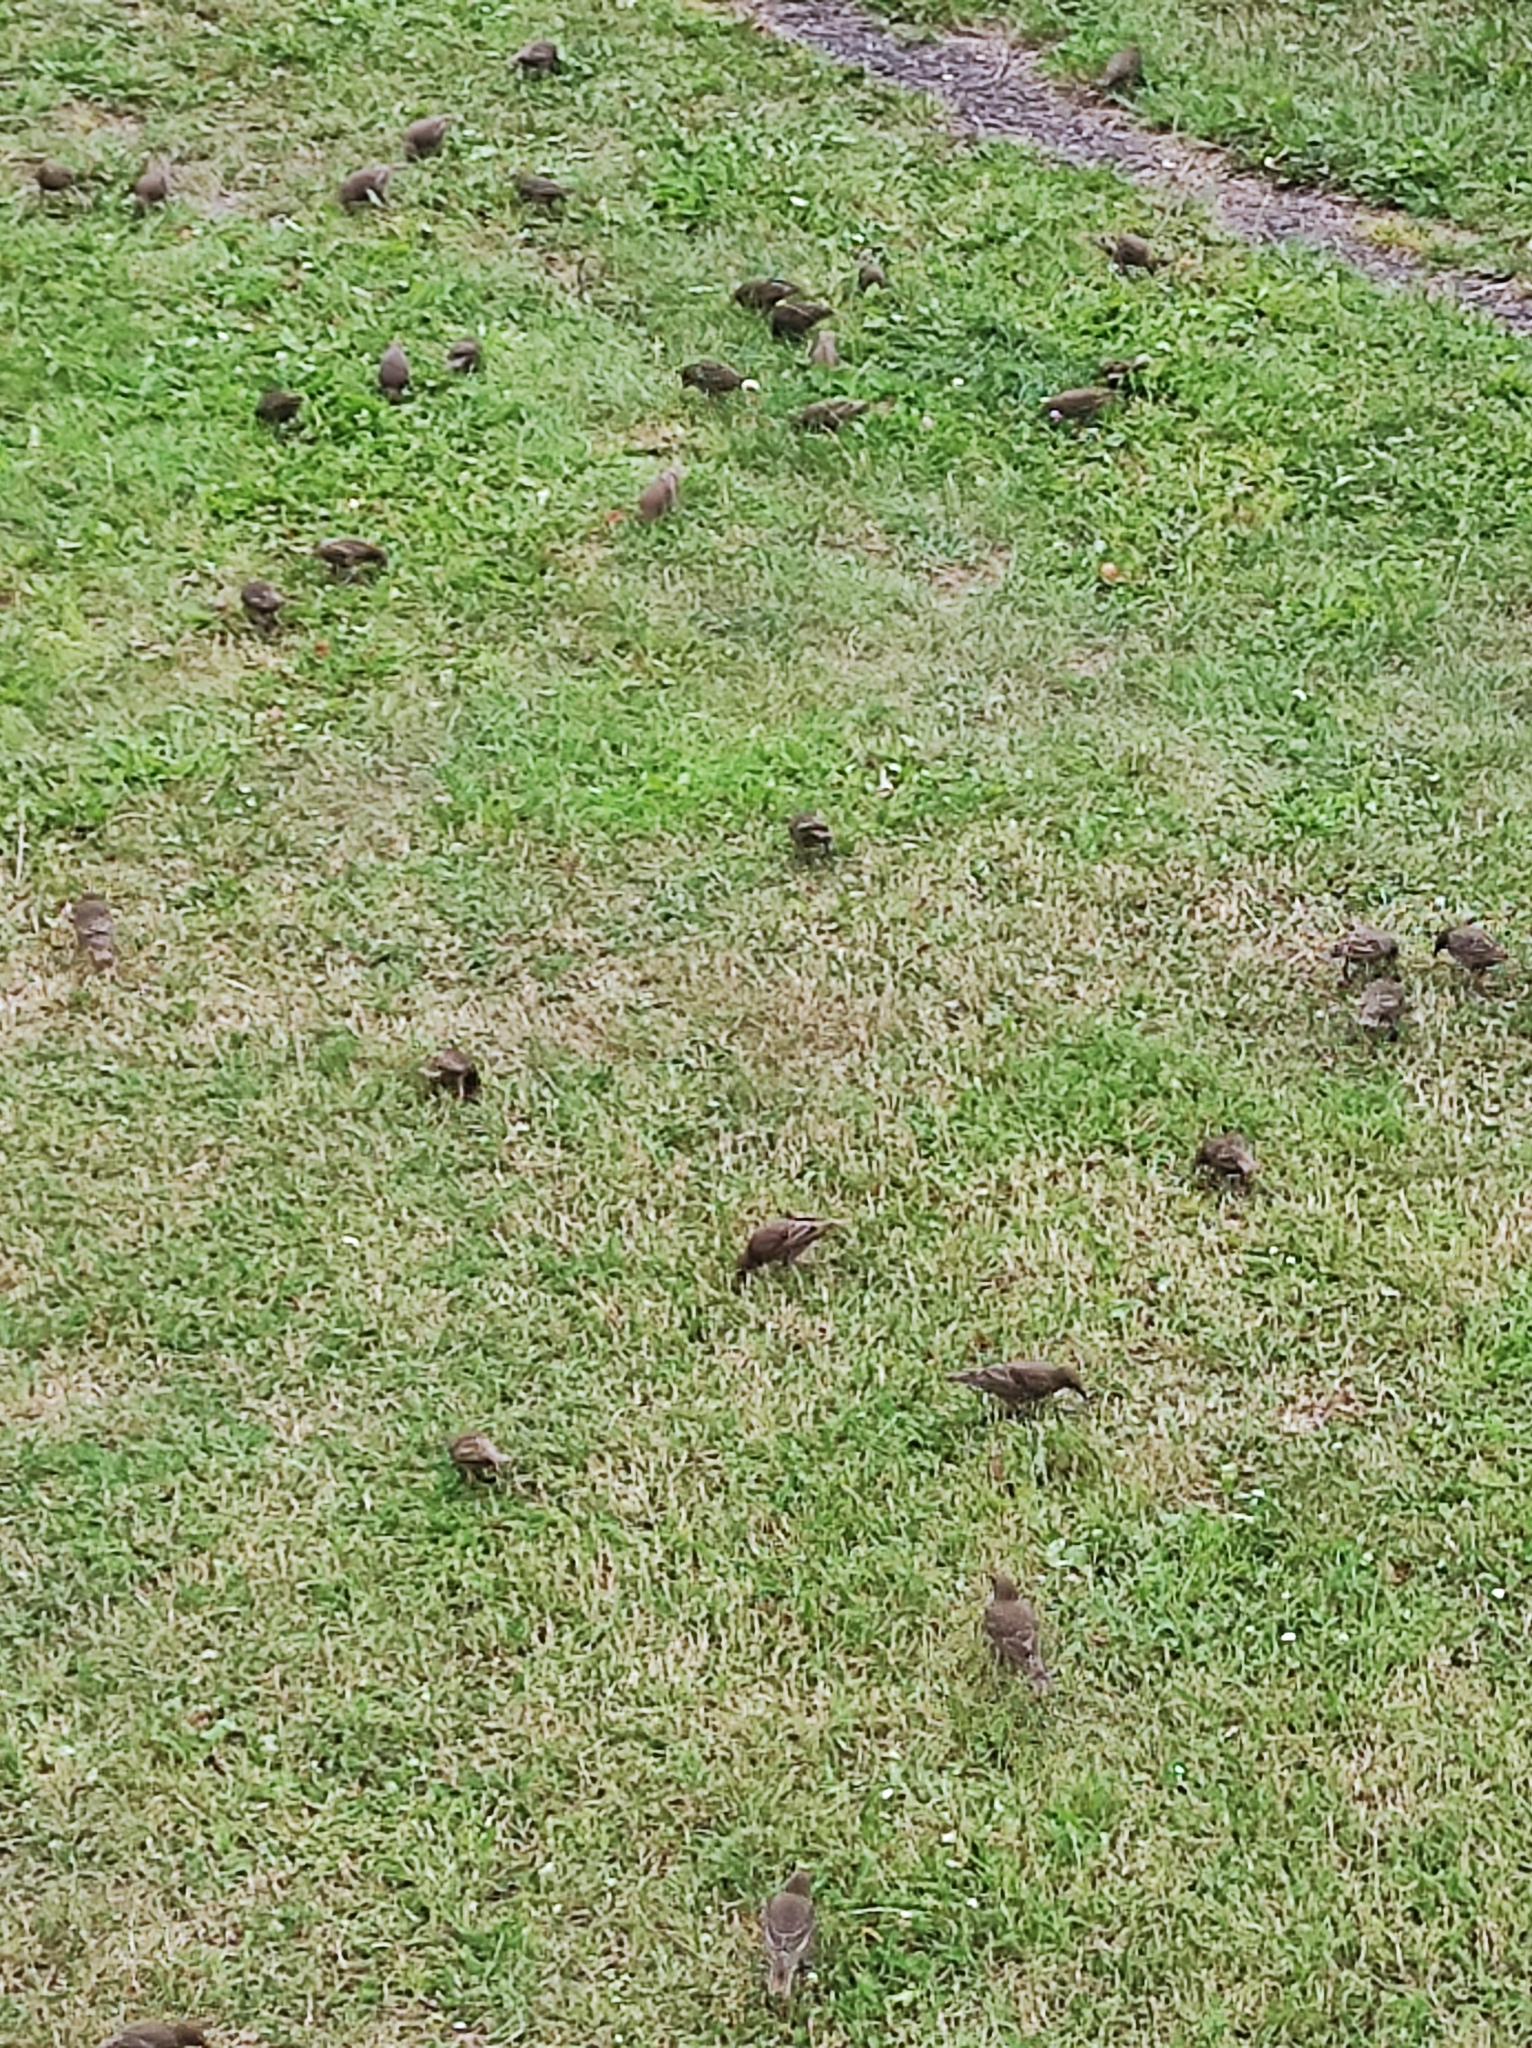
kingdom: Animalia
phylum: Chordata
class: Aves
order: Passeriformes
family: Sturnidae
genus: Sturnus
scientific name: Sturnus vulgaris
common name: Common starling
